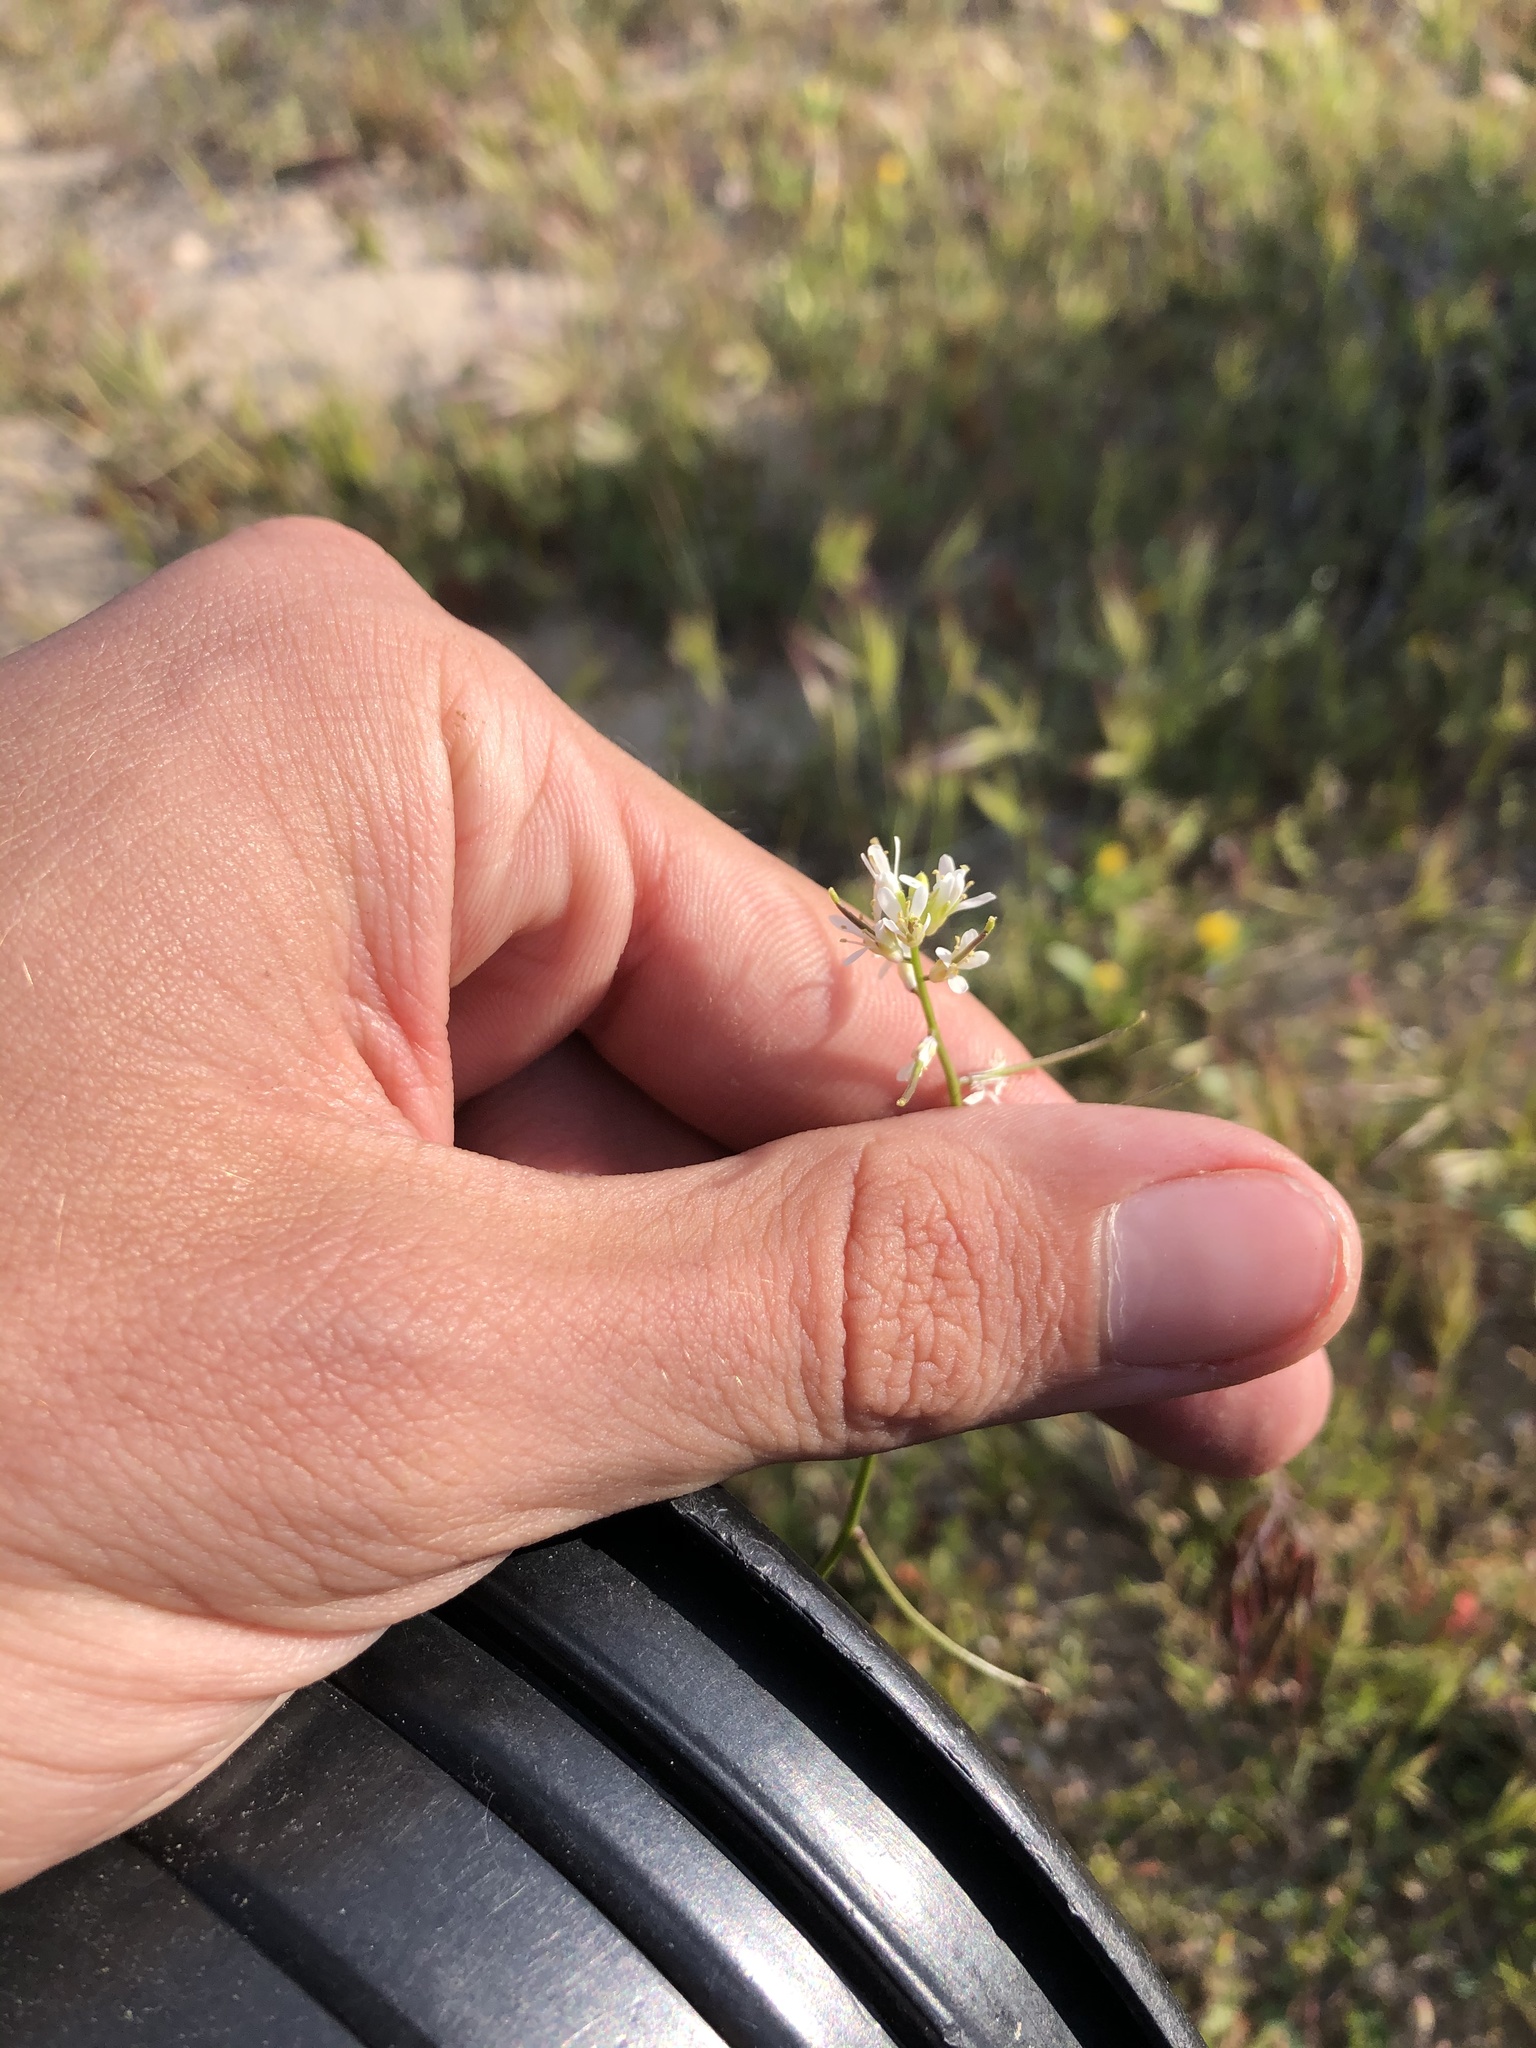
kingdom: Plantae
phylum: Tracheophyta
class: Magnoliopsida
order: Brassicales
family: Brassicaceae
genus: Streptanthus
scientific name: Streptanthus lasiophyllus
